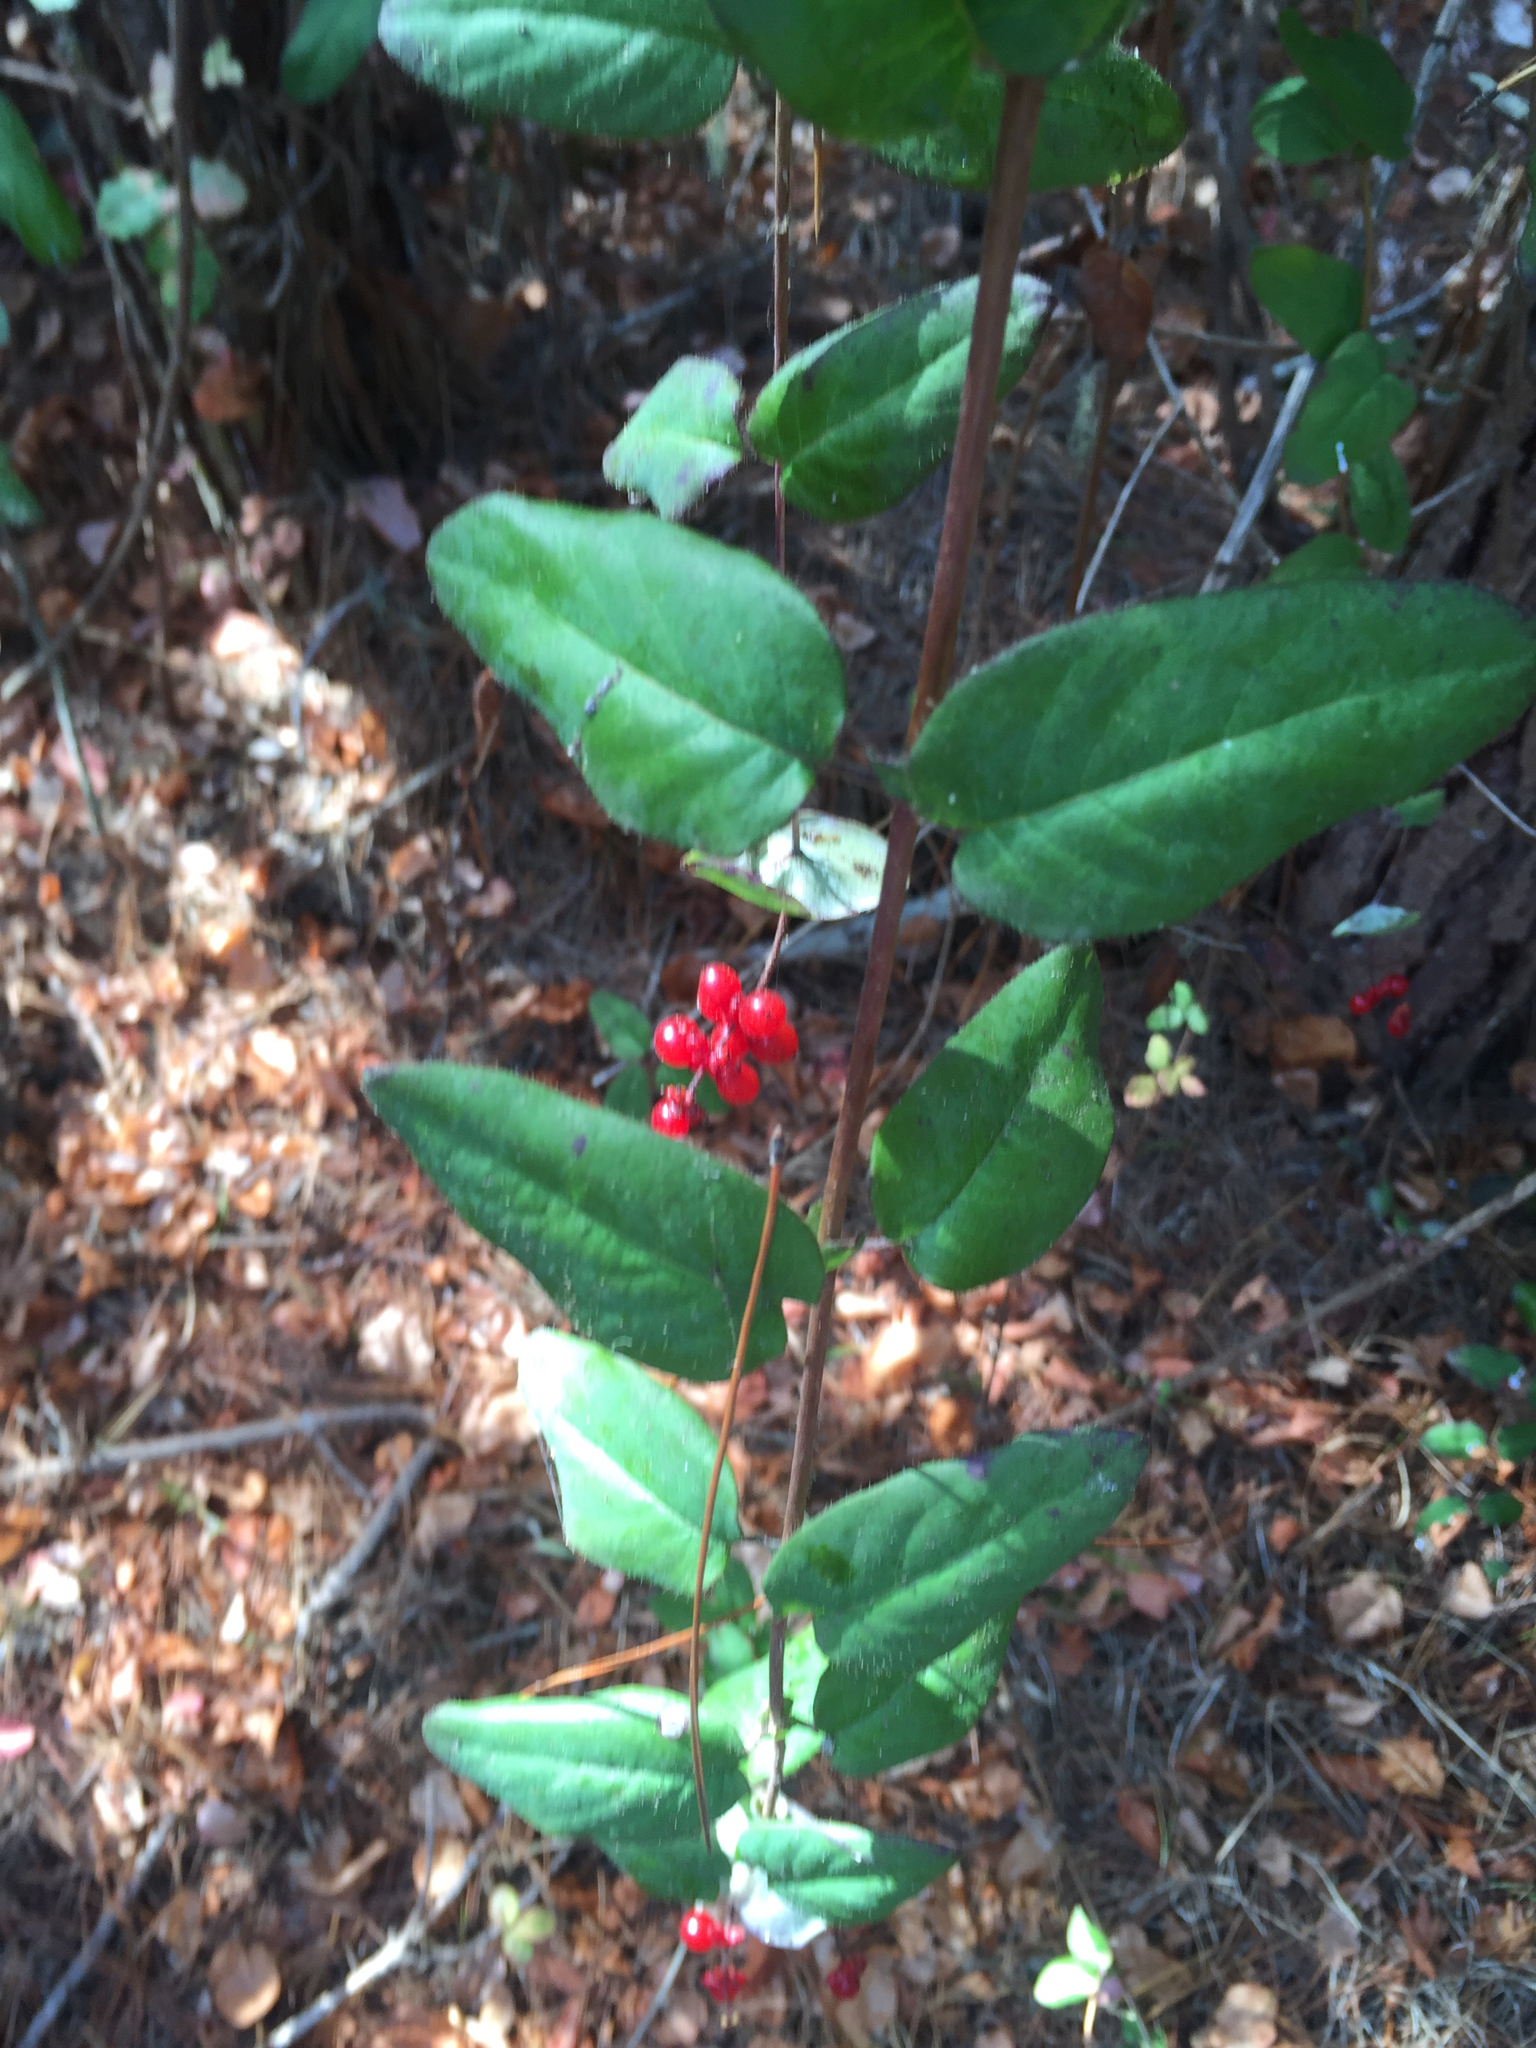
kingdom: Plantae
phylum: Tracheophyta
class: Magnoliopsida
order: Dipsacales
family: Caprifoliaceae
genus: Lonicera
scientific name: Lonicera hispidula
